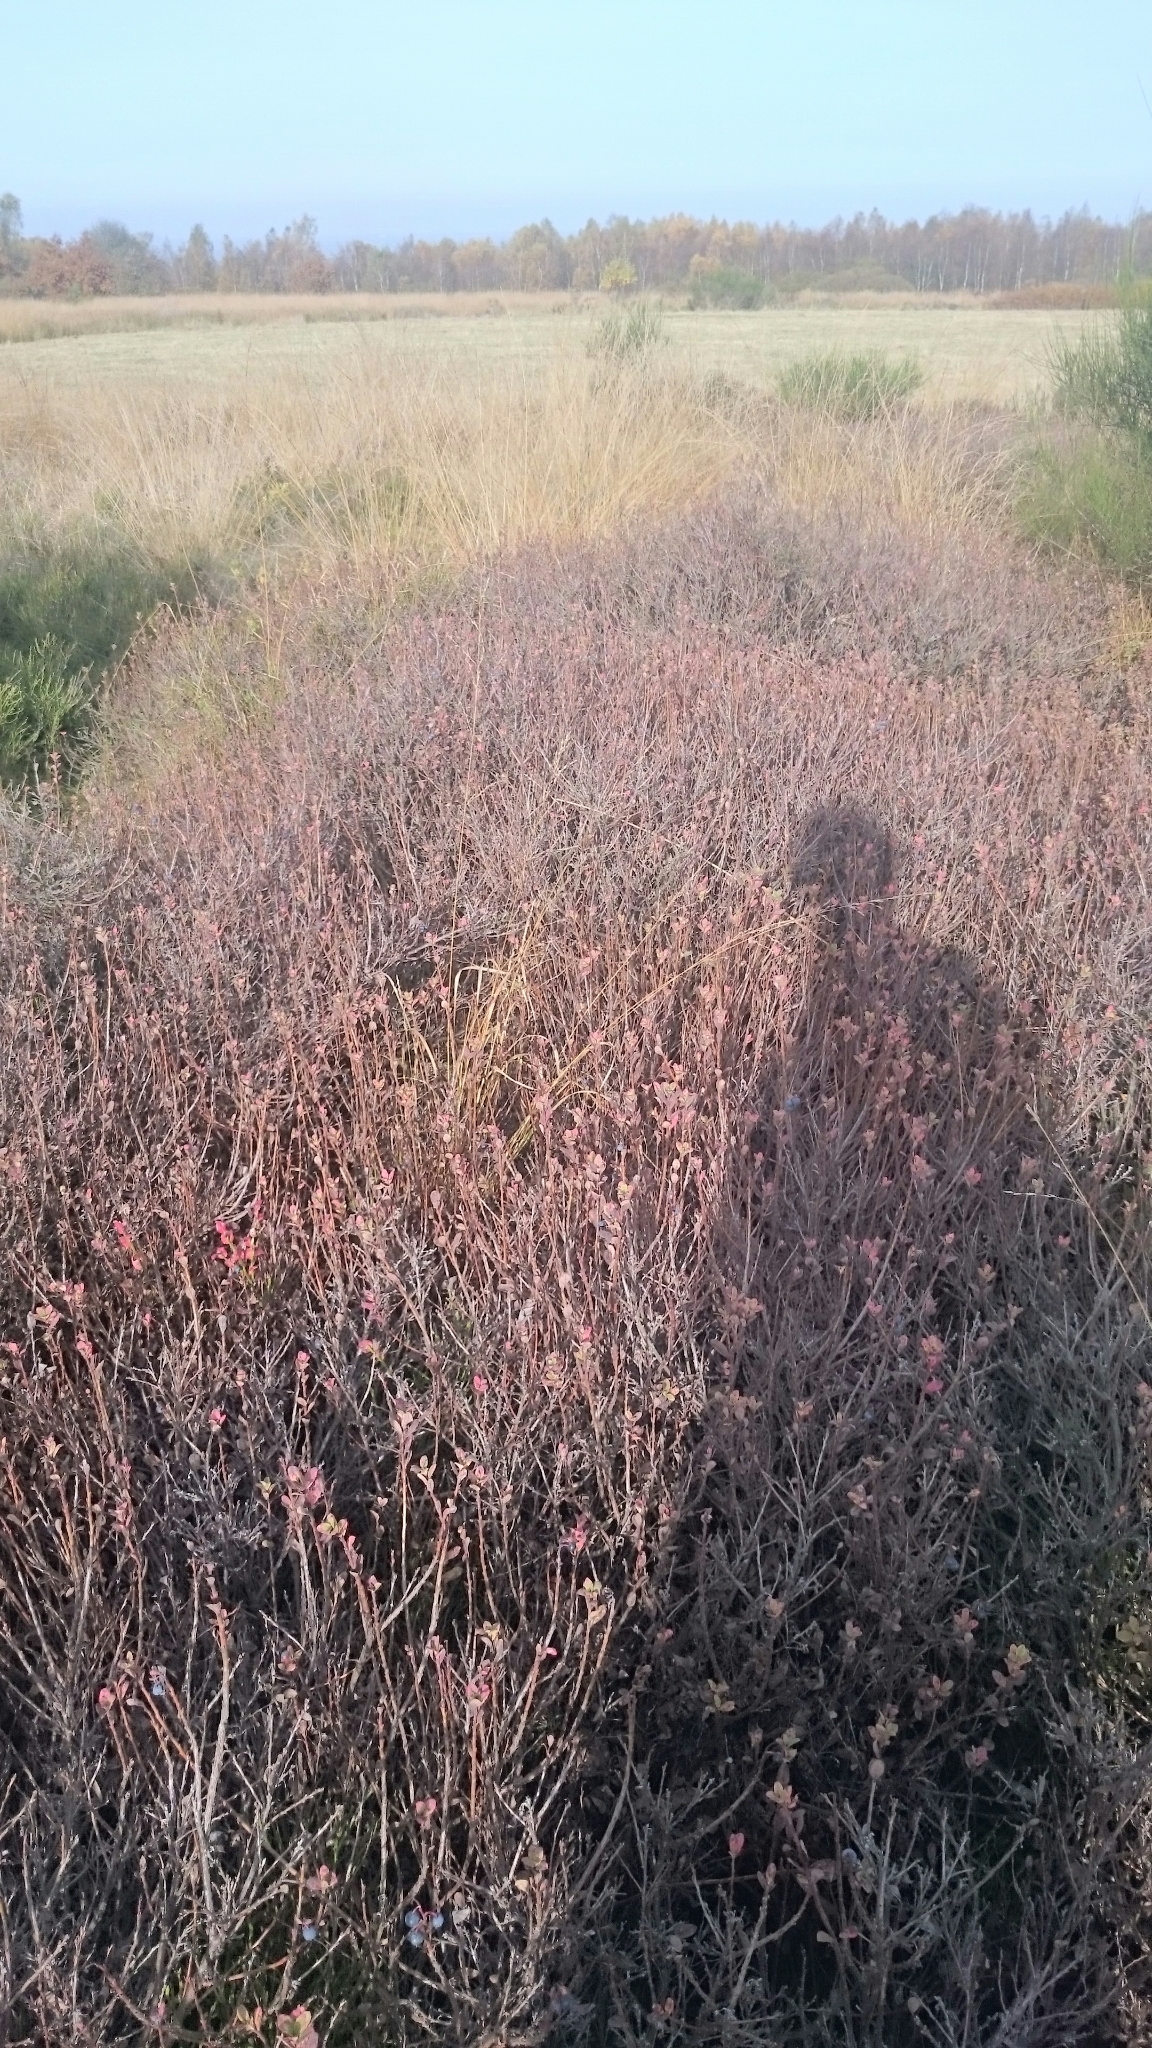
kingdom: Plantae
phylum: Tracheophyta
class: Magnoliopsida
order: Ericales
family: Ericaceae
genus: Vaccinium
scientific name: Vaccinium uliginosum
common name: Bog bilberry
